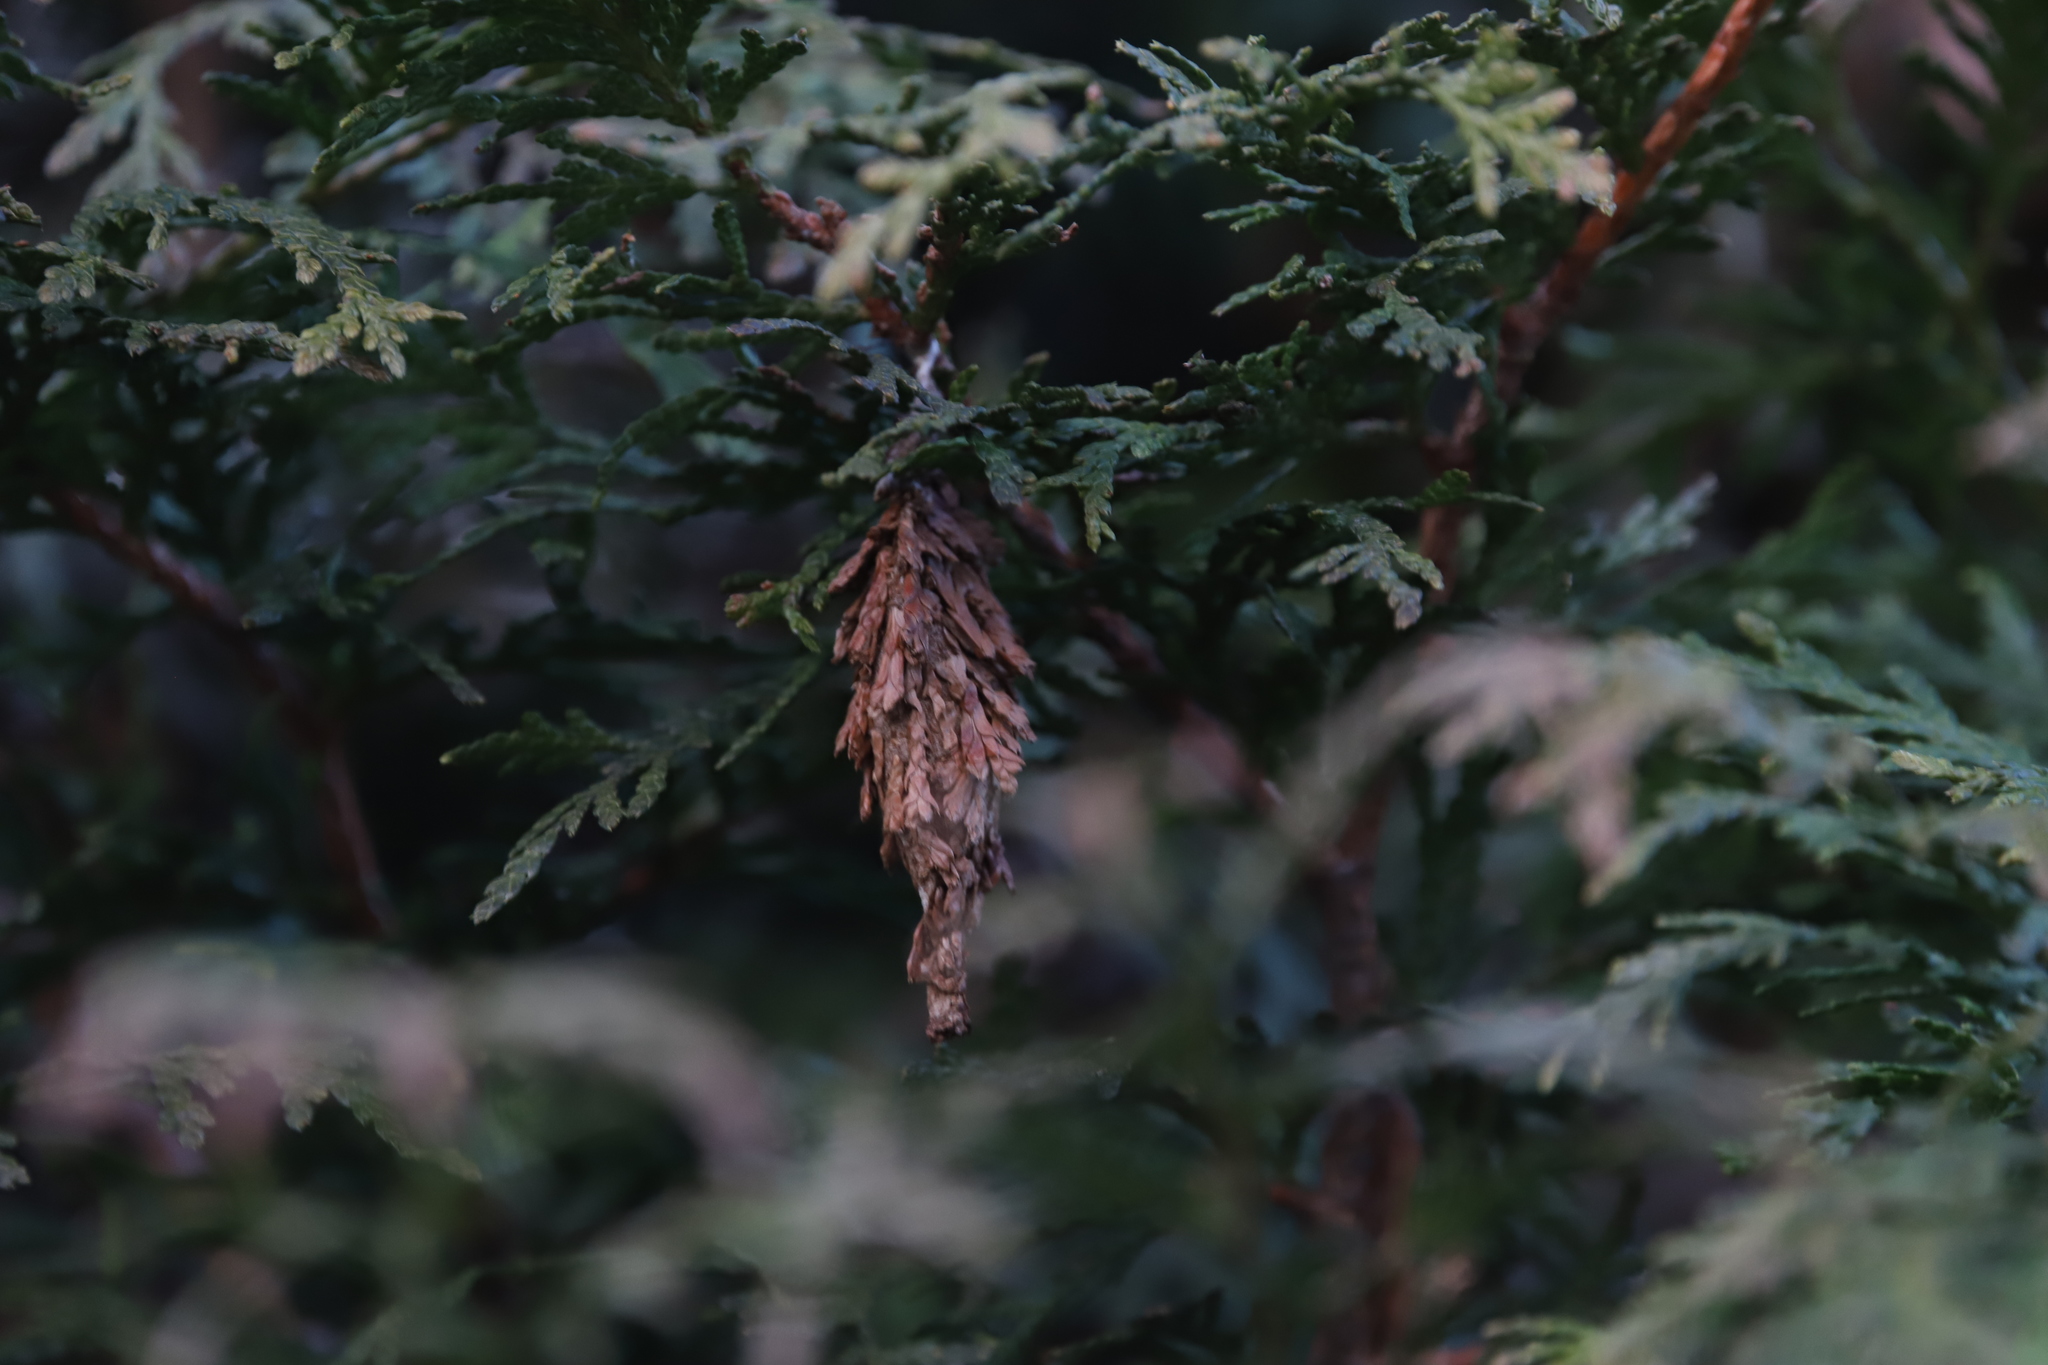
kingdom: Animalia
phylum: Arthropoda
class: Insecta
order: Lepidoptera
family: Psychidae
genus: Thyridopteryx
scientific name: Thyridopteryx ephemeraeformis
